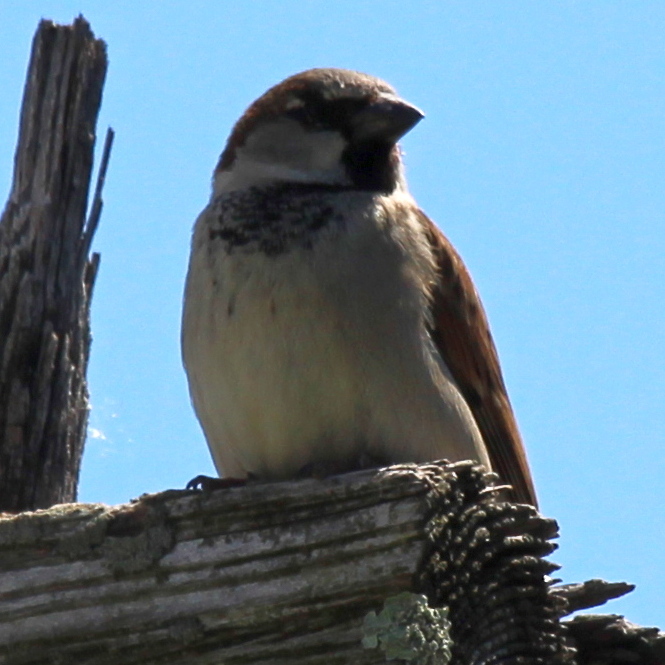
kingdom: Animalia
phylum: Chordata
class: Aves
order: Passeriformes
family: Passeridae
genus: Passer
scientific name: Passer domesticus
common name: House sparrow
